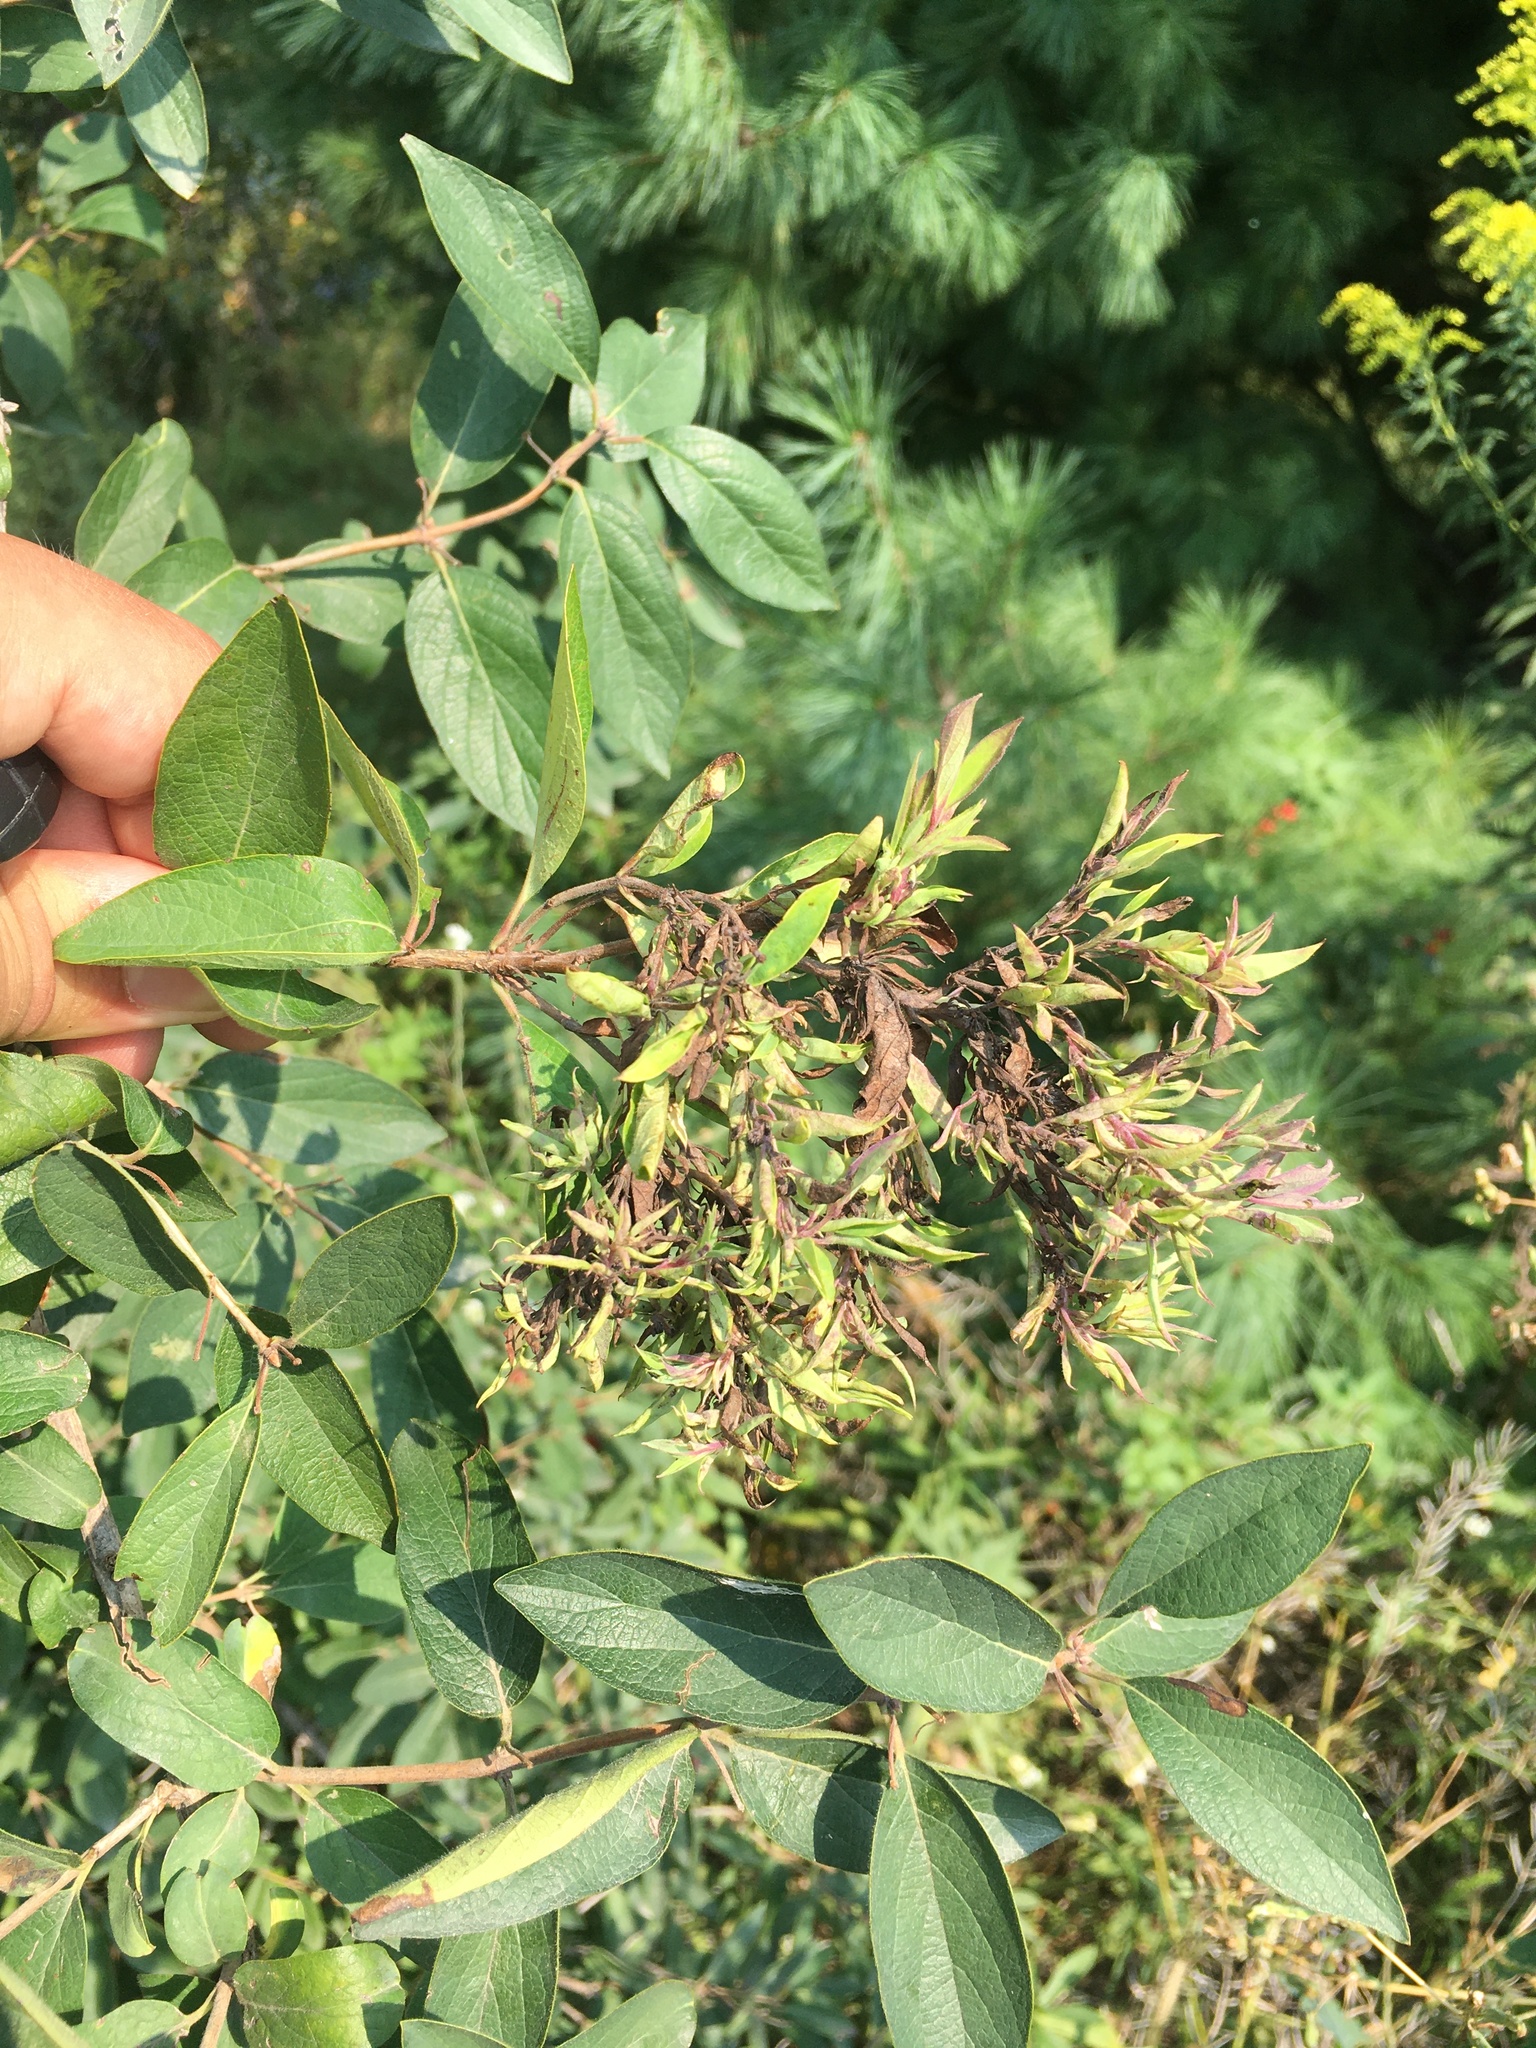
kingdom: Animalia
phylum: Arthropoda
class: Insecta
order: Hemiptera
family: Aphididae
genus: Hyadaphis
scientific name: Hyadaphis tataricae
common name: Honeysuckle witches' broom aphid
